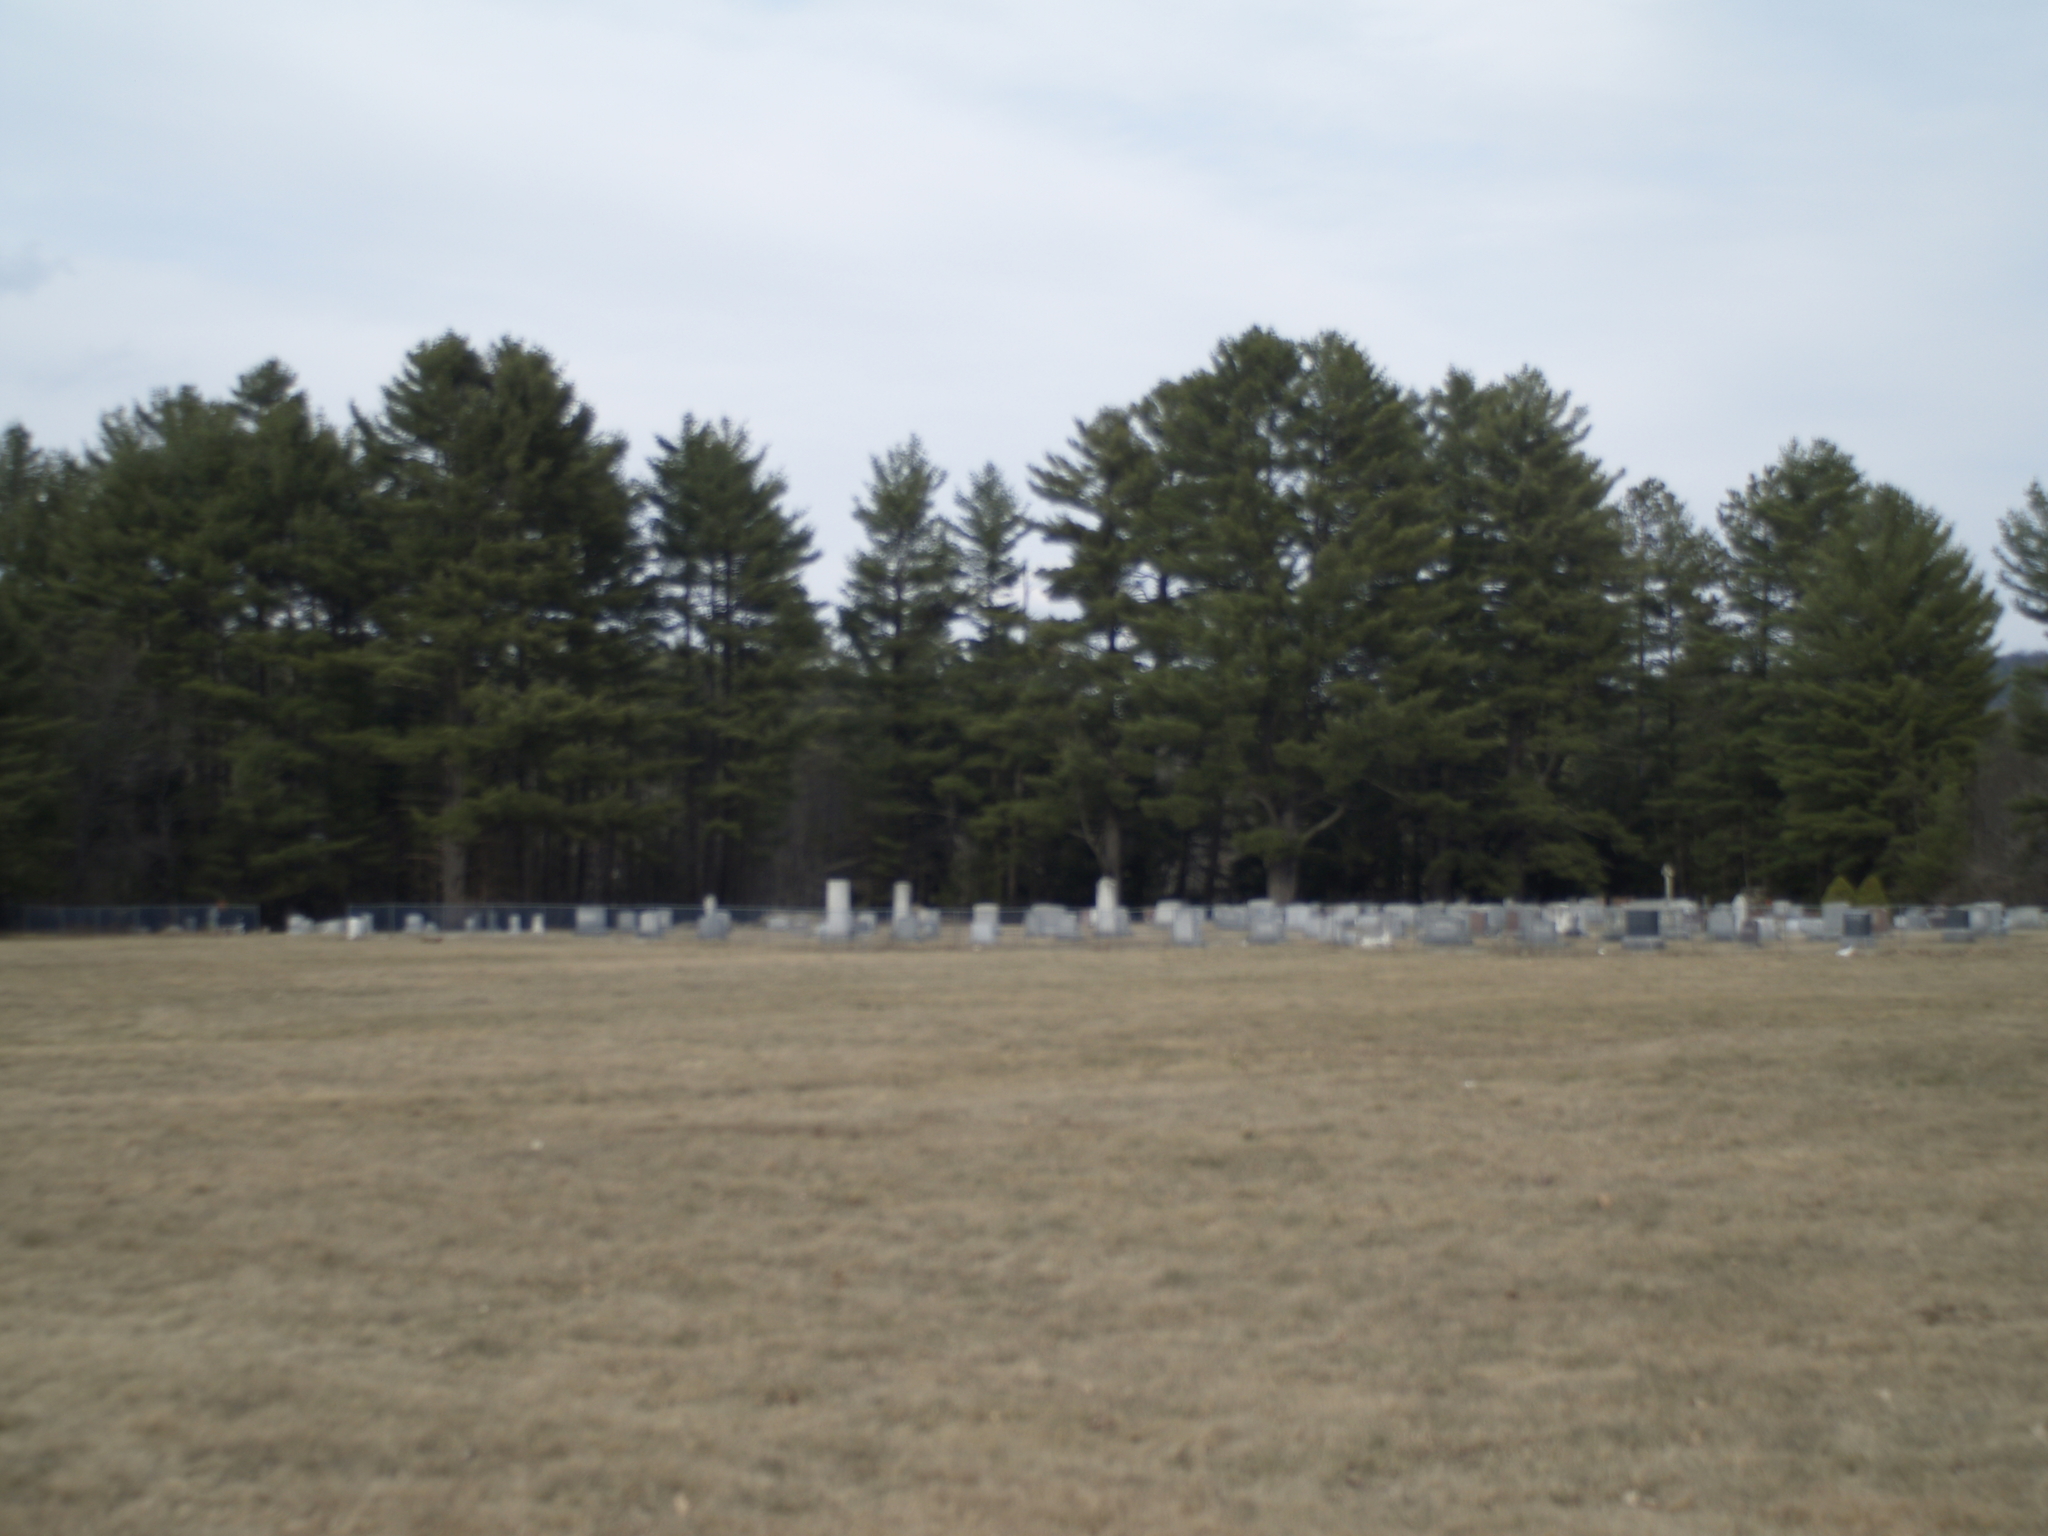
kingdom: Plantae
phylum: Tracheophyta
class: Pinopsida
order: Pinales
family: Pinaceae
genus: Pinus
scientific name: Pinus strobus
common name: Weymouth pine
